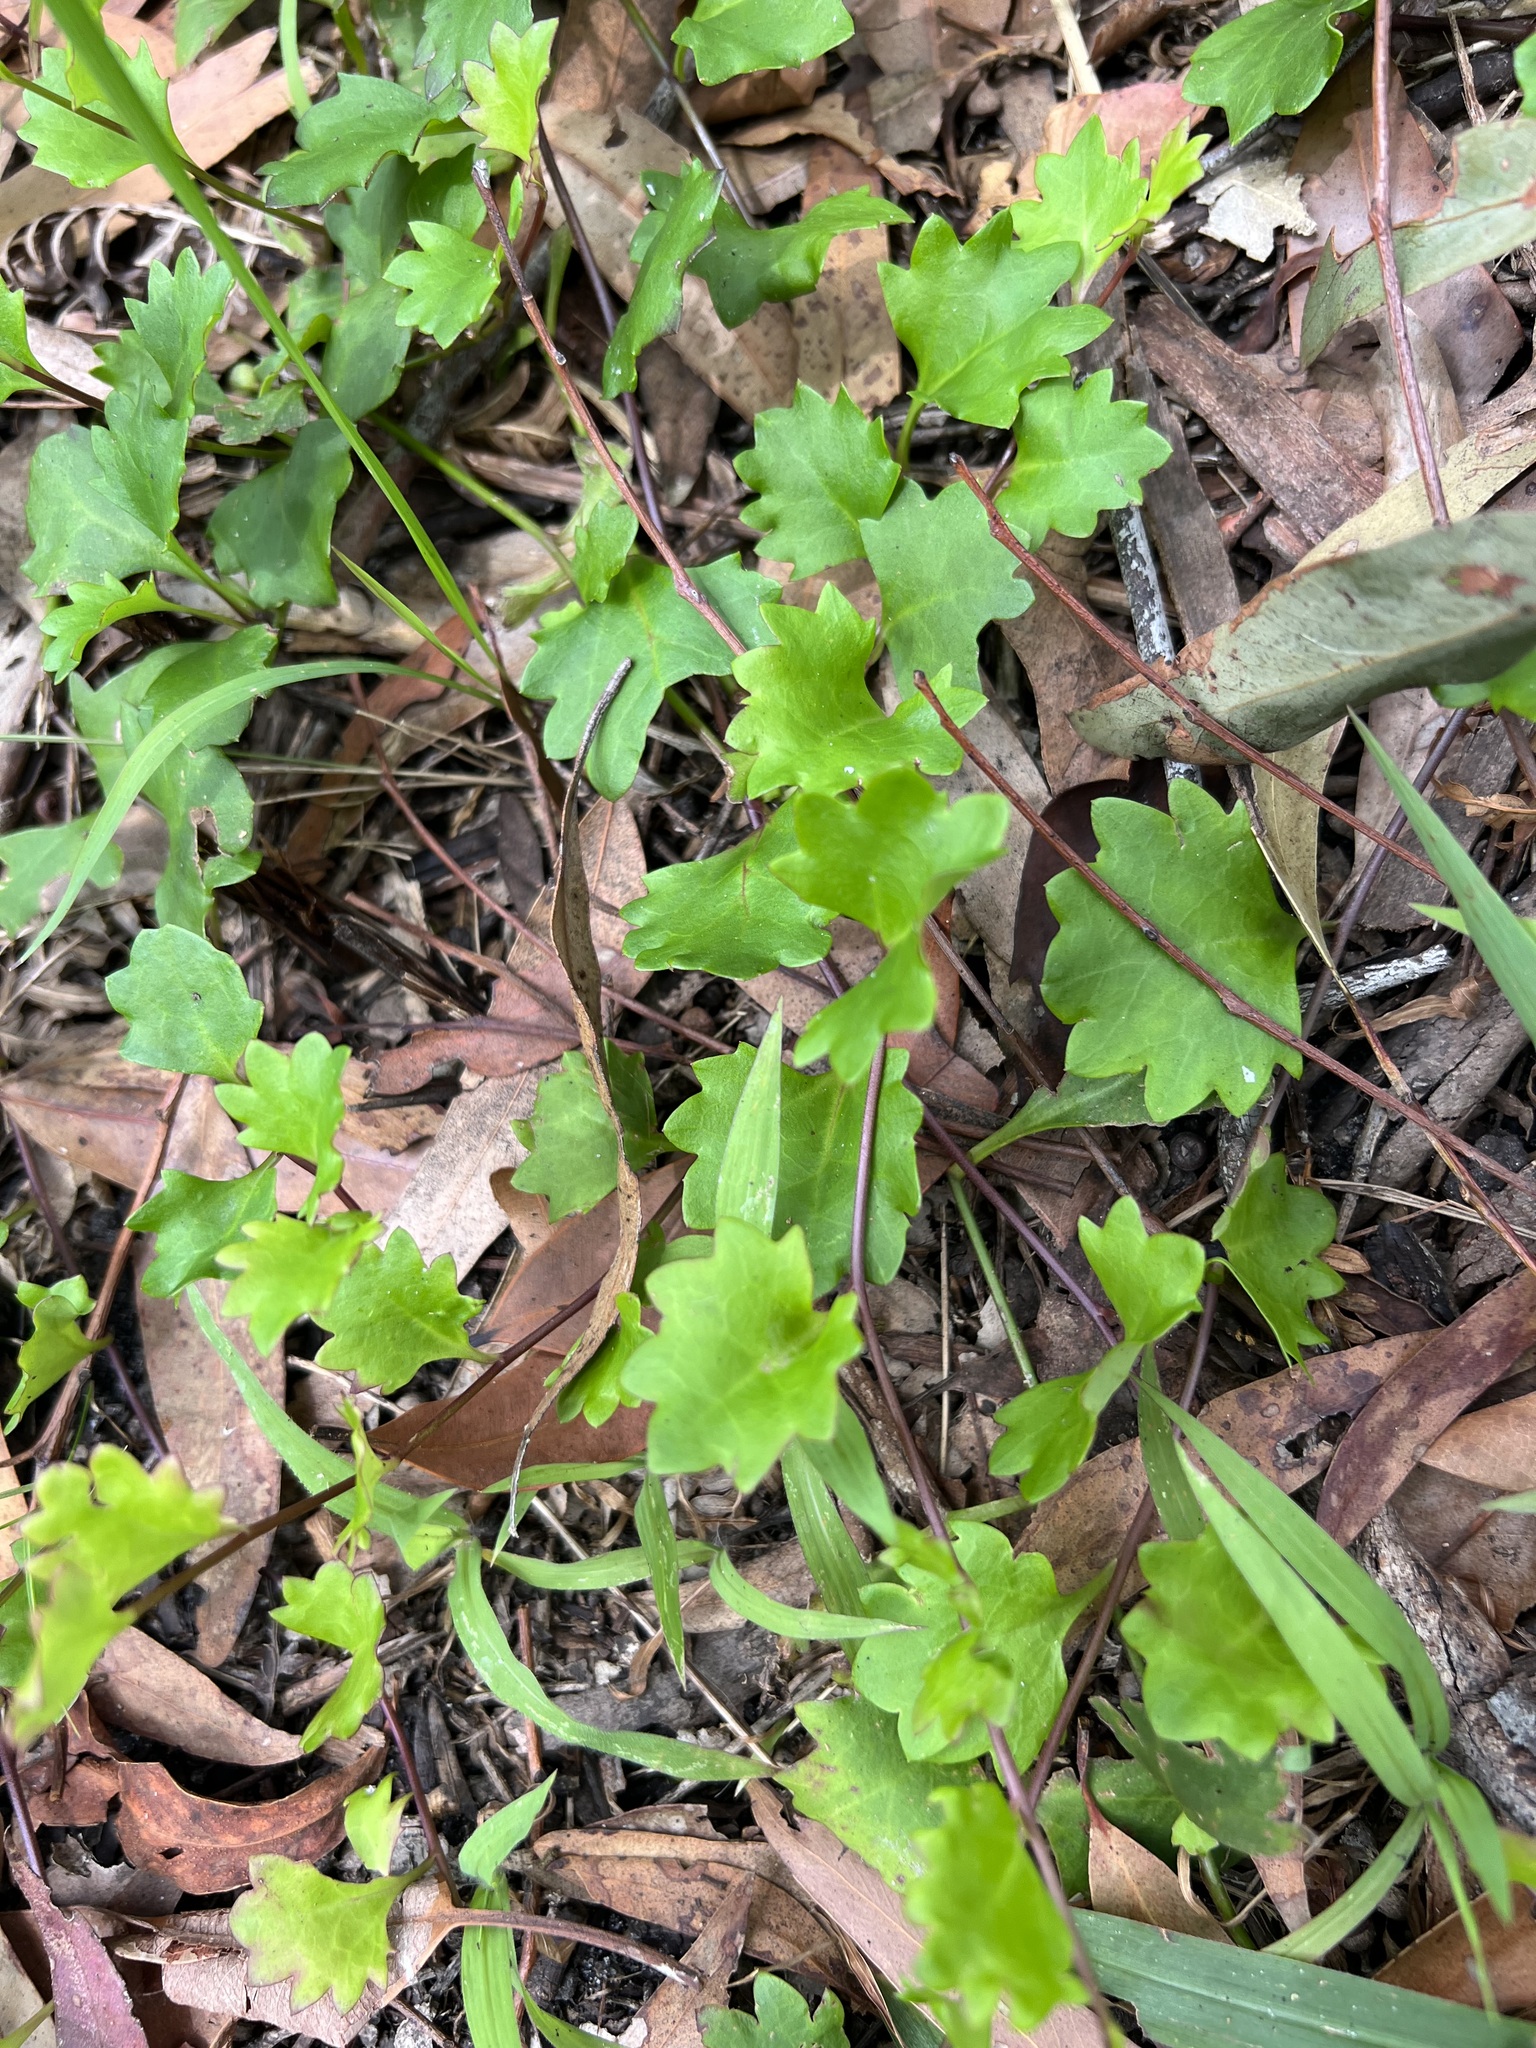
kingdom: Plantae
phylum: Tracheophyta
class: Magnoliopsida
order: Asterales
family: Goodeniaceae
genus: Goodenia
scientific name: Goodenia rotundifolia
